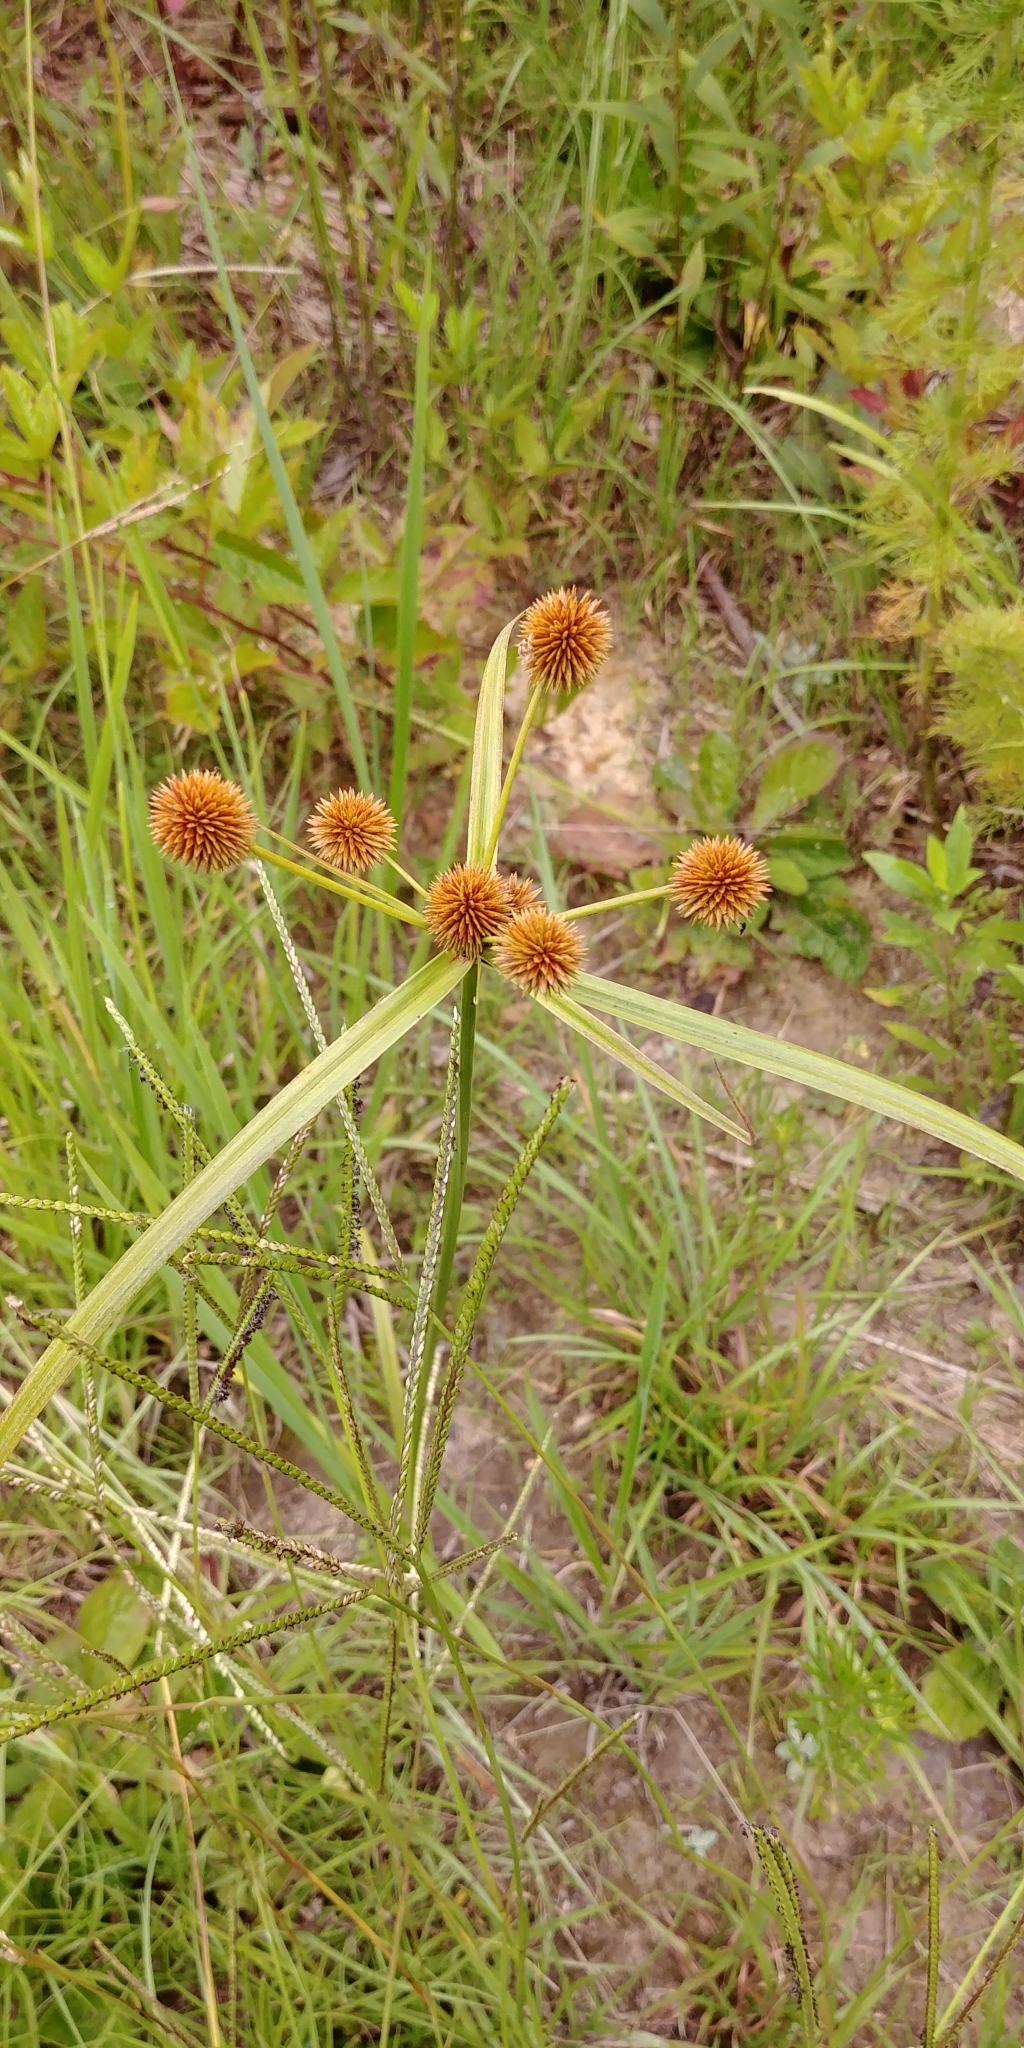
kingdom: Plantae
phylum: Tracheophyta
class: Liliopsida
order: Poales
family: Cyperaceae
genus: Cyperus
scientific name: Cyperus echinatus
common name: Teasel sedge
